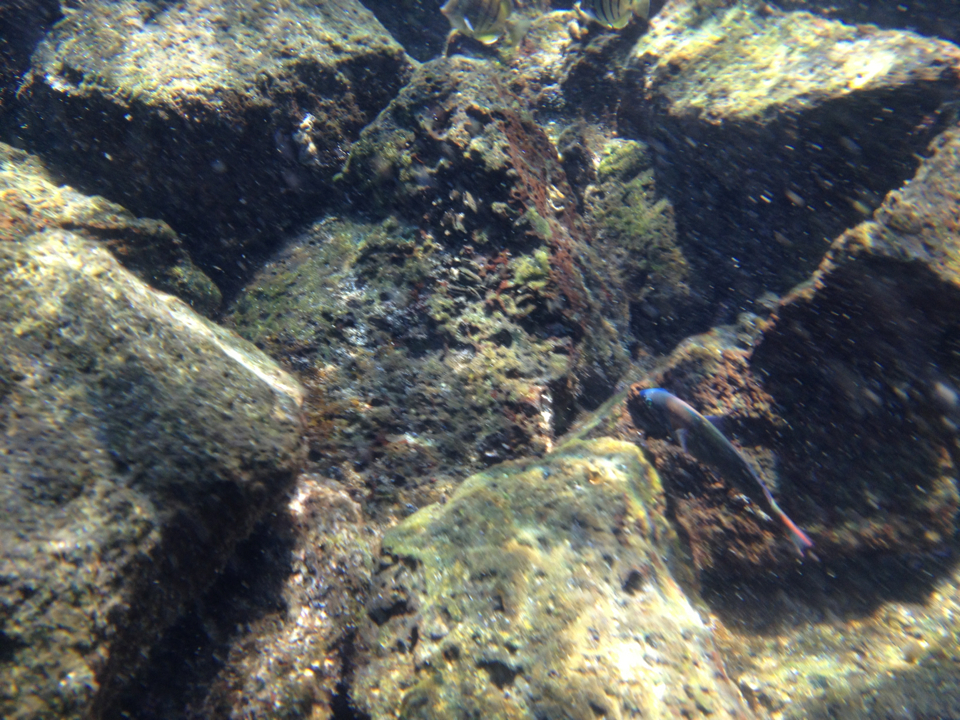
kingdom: Animalia
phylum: Chordata
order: Perciformes
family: Labridae
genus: Thalassoma
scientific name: Thalassoma duperrey
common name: Saddle wrasse
